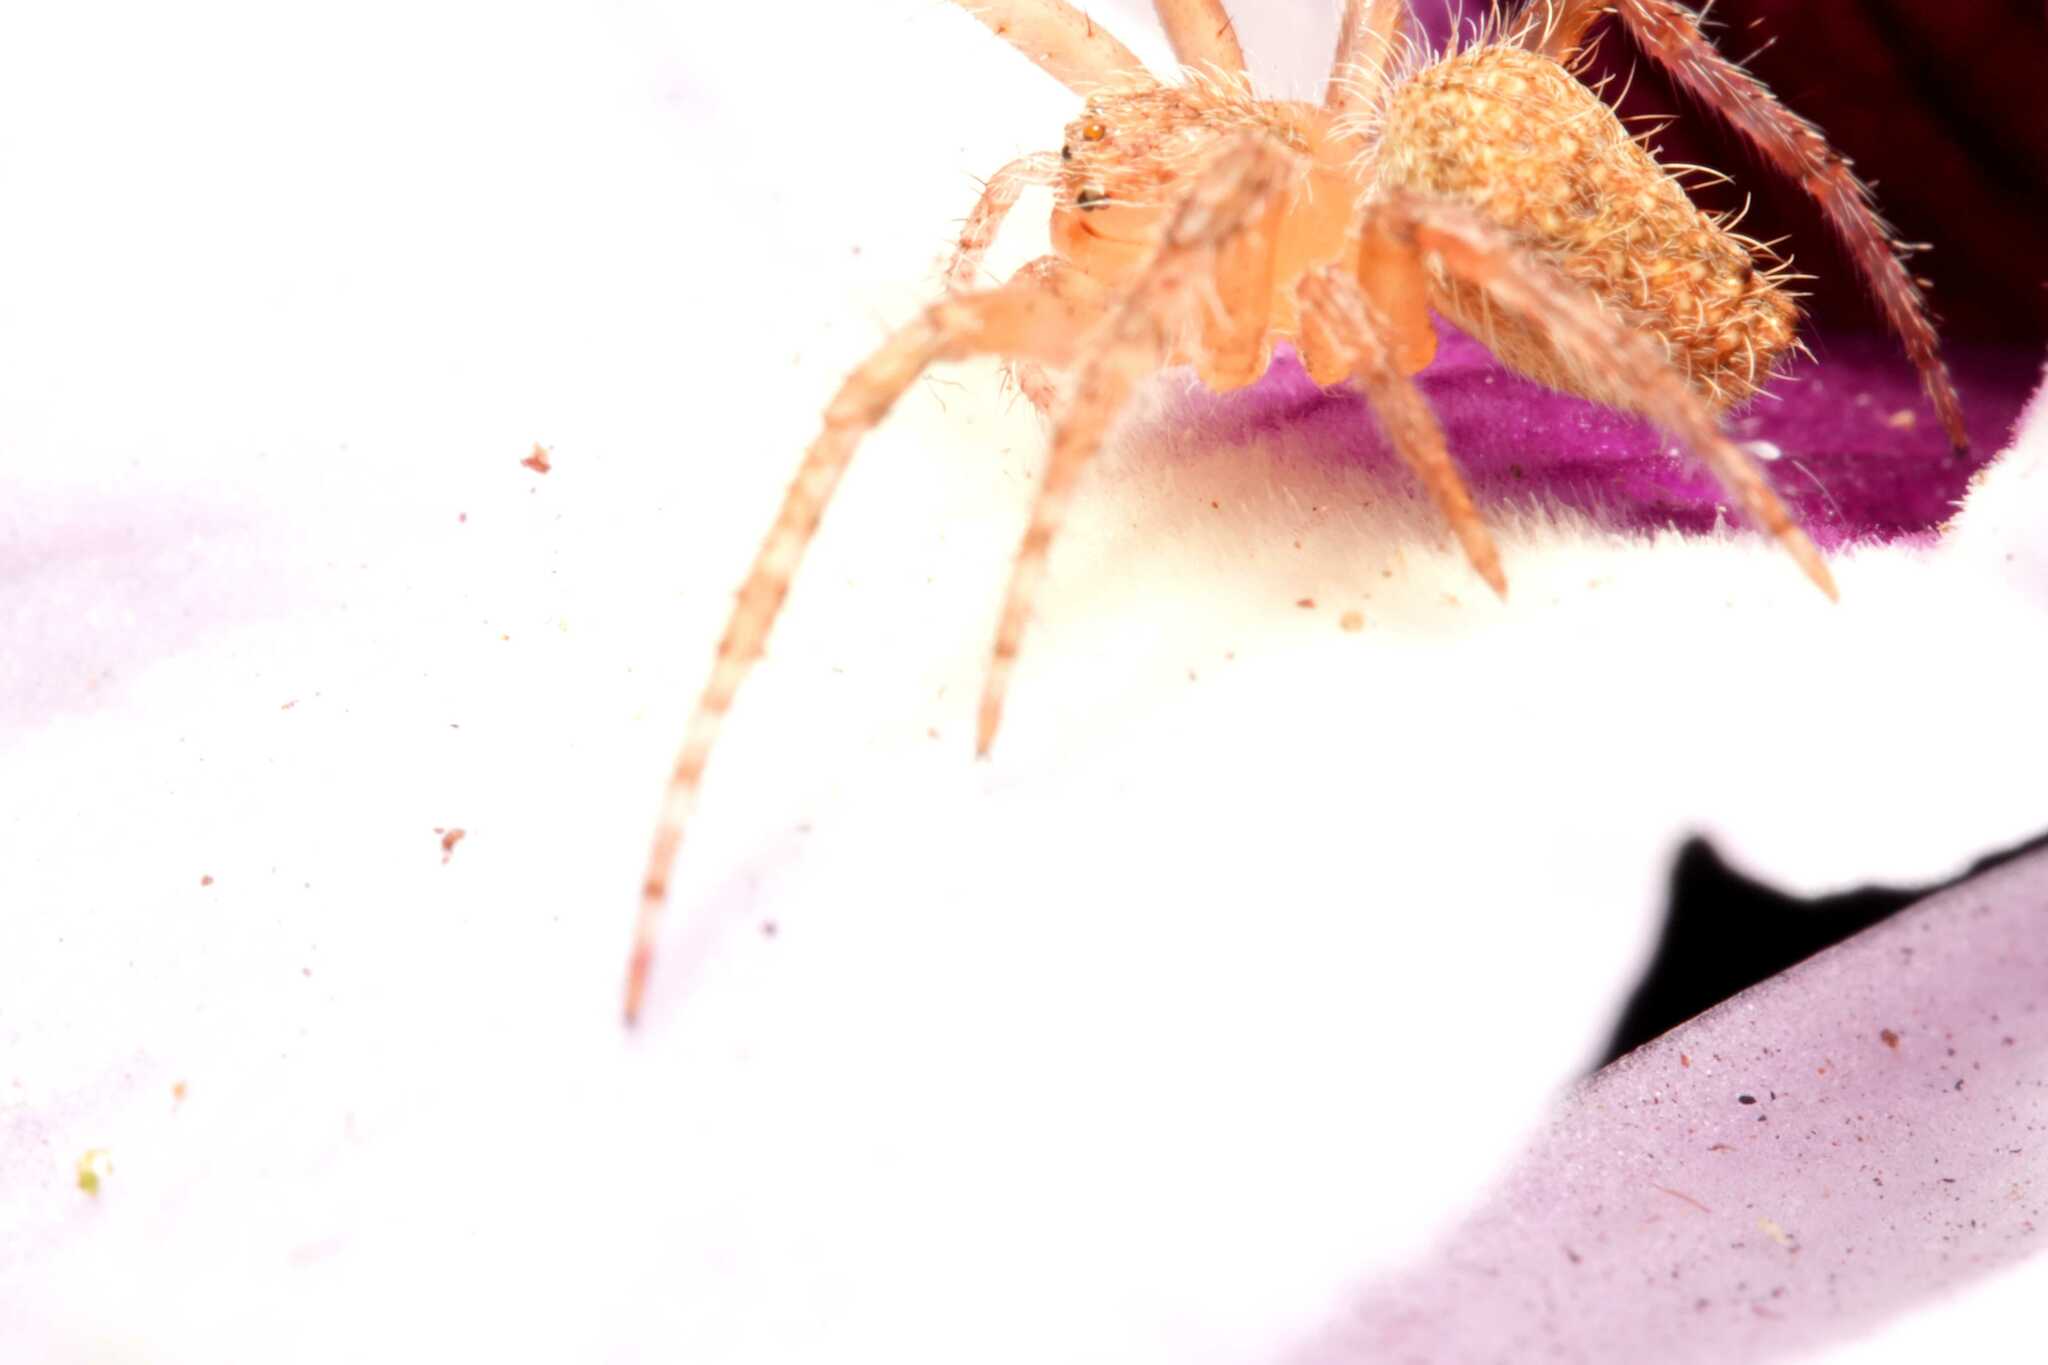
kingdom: Animalia
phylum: Arthropoda
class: Arachnida
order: Araneae
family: Araneidae
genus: Eriophora
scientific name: Eriophora edax
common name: Orb weavers
